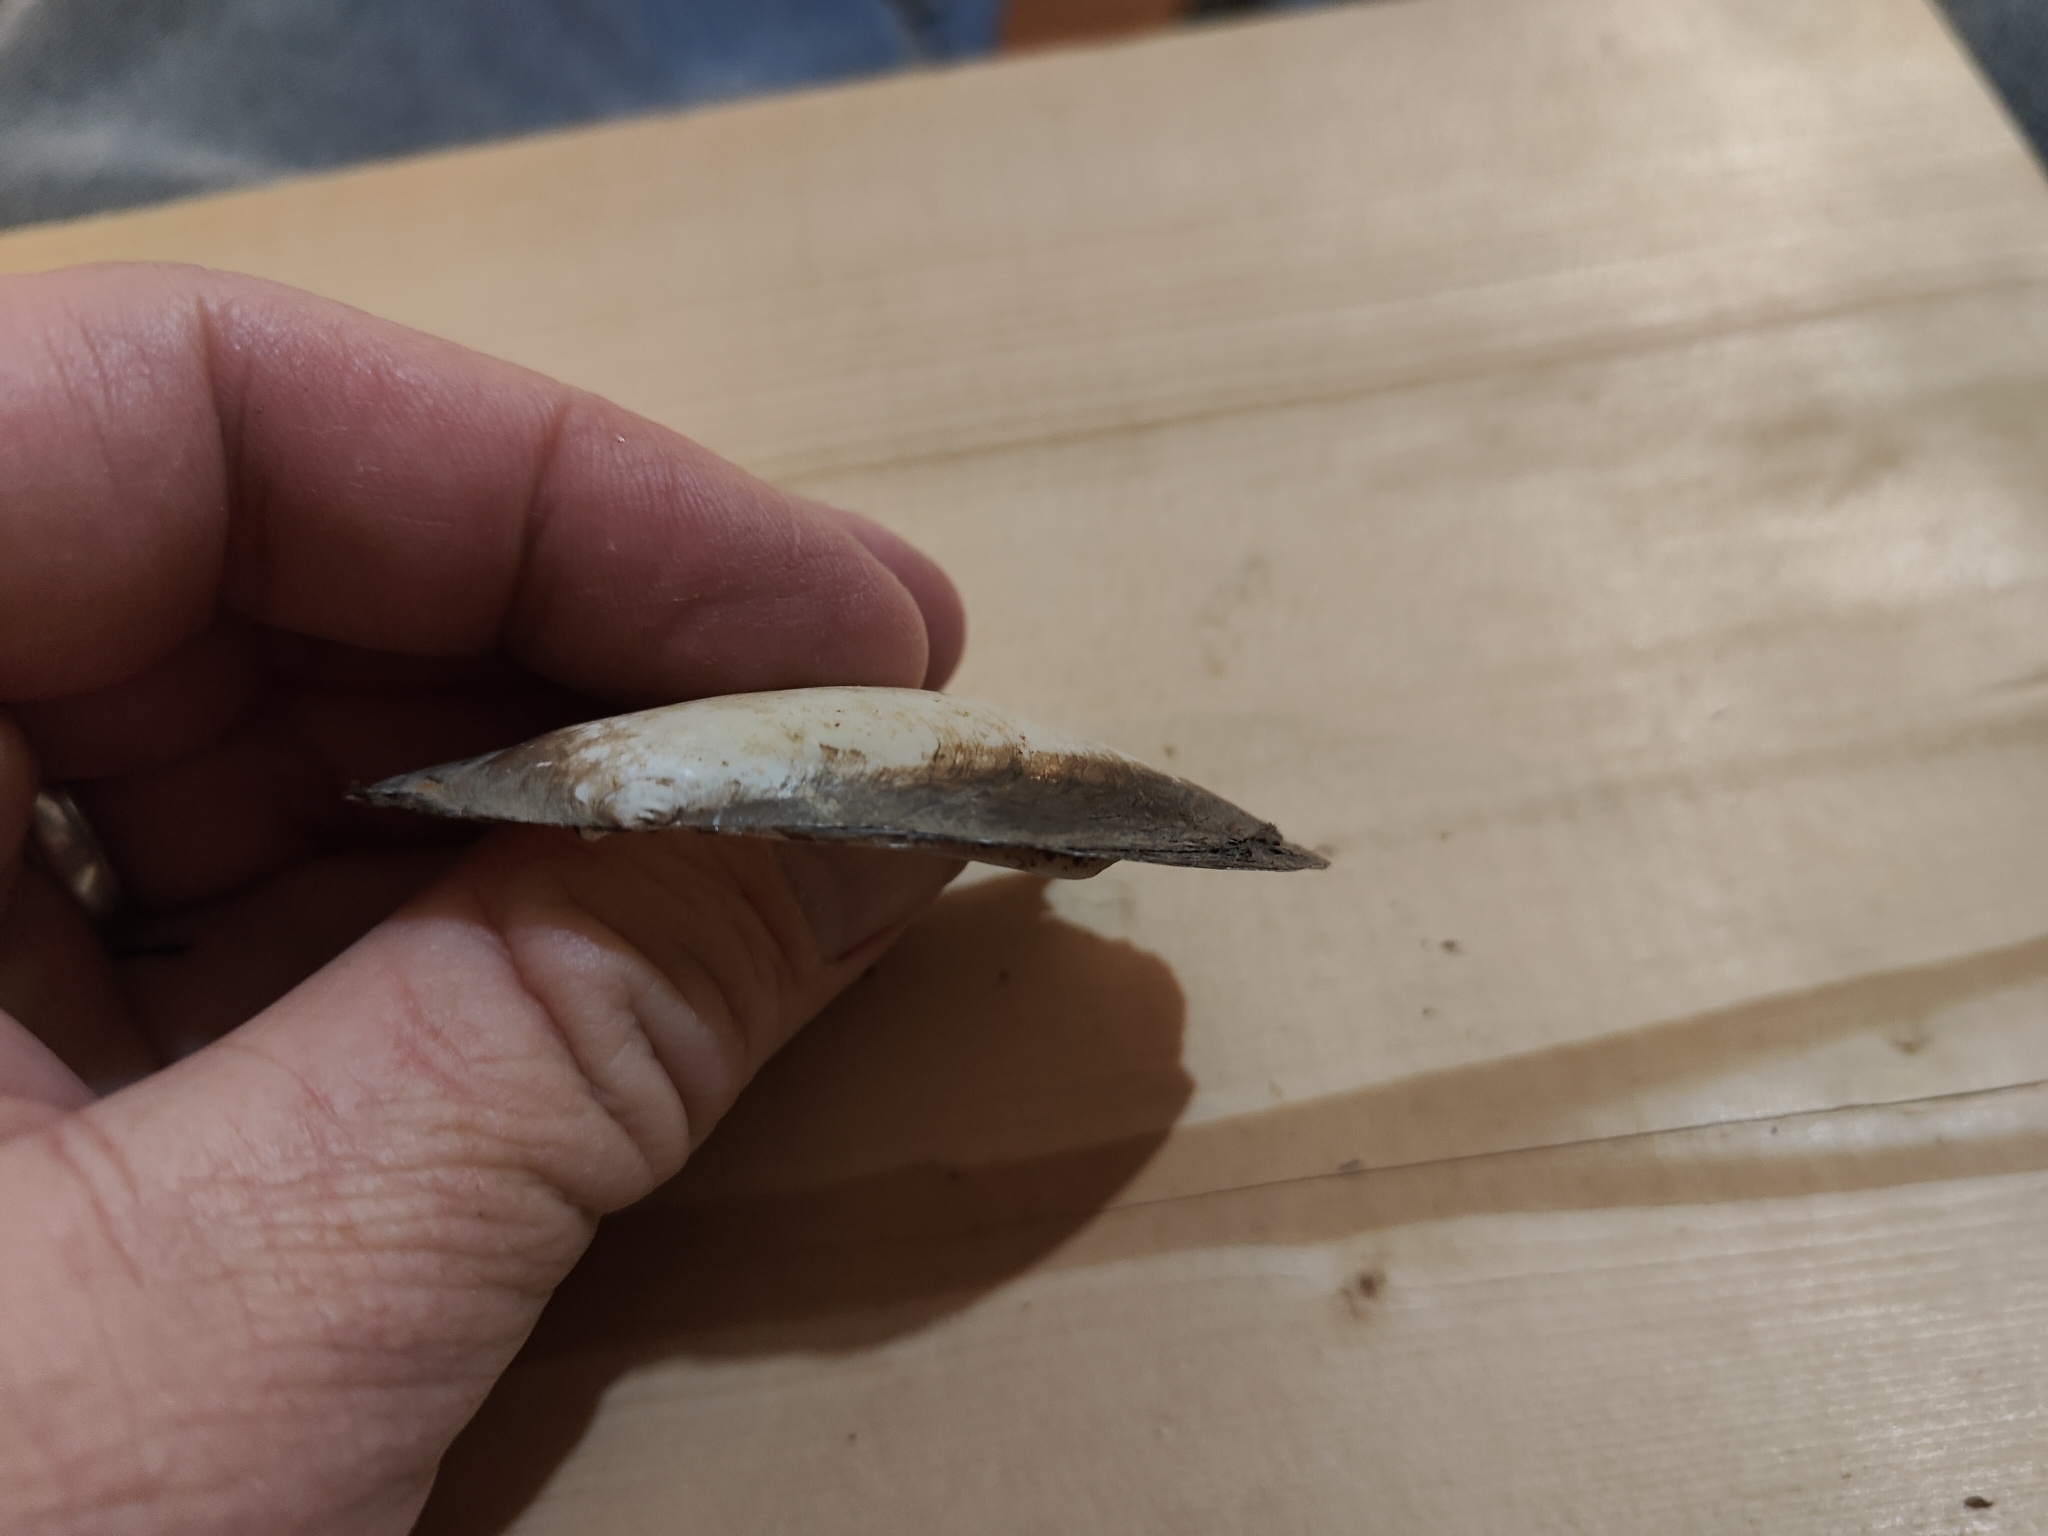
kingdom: Animalia
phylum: Mollusca
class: Bivalvia
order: Unionida
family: Unionidae
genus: Potamilus
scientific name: Potamilus fragilis
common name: Fragile papershell
